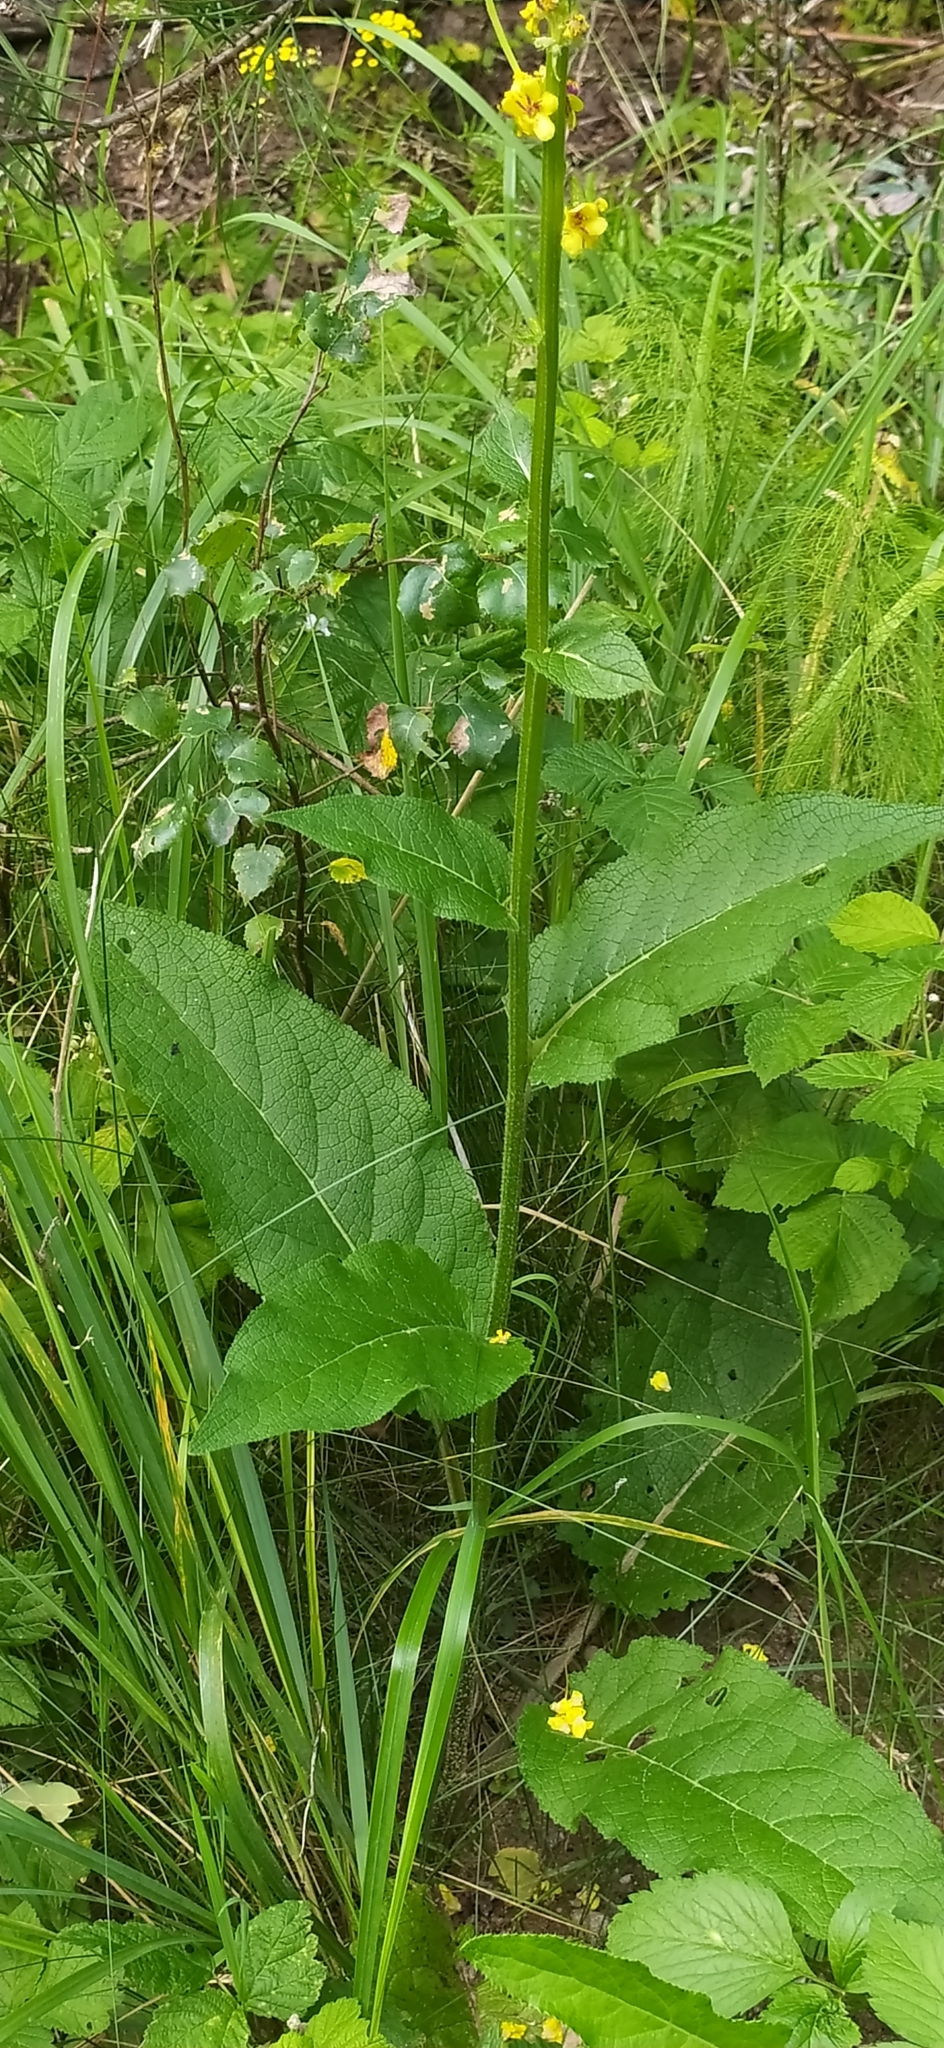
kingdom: Plantae
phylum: Tracheophyta
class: Magnoliopsida
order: Lamiales
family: Scrophulariaceae
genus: Verbascum
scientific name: Verbascum nigrum
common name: Dark mullein
